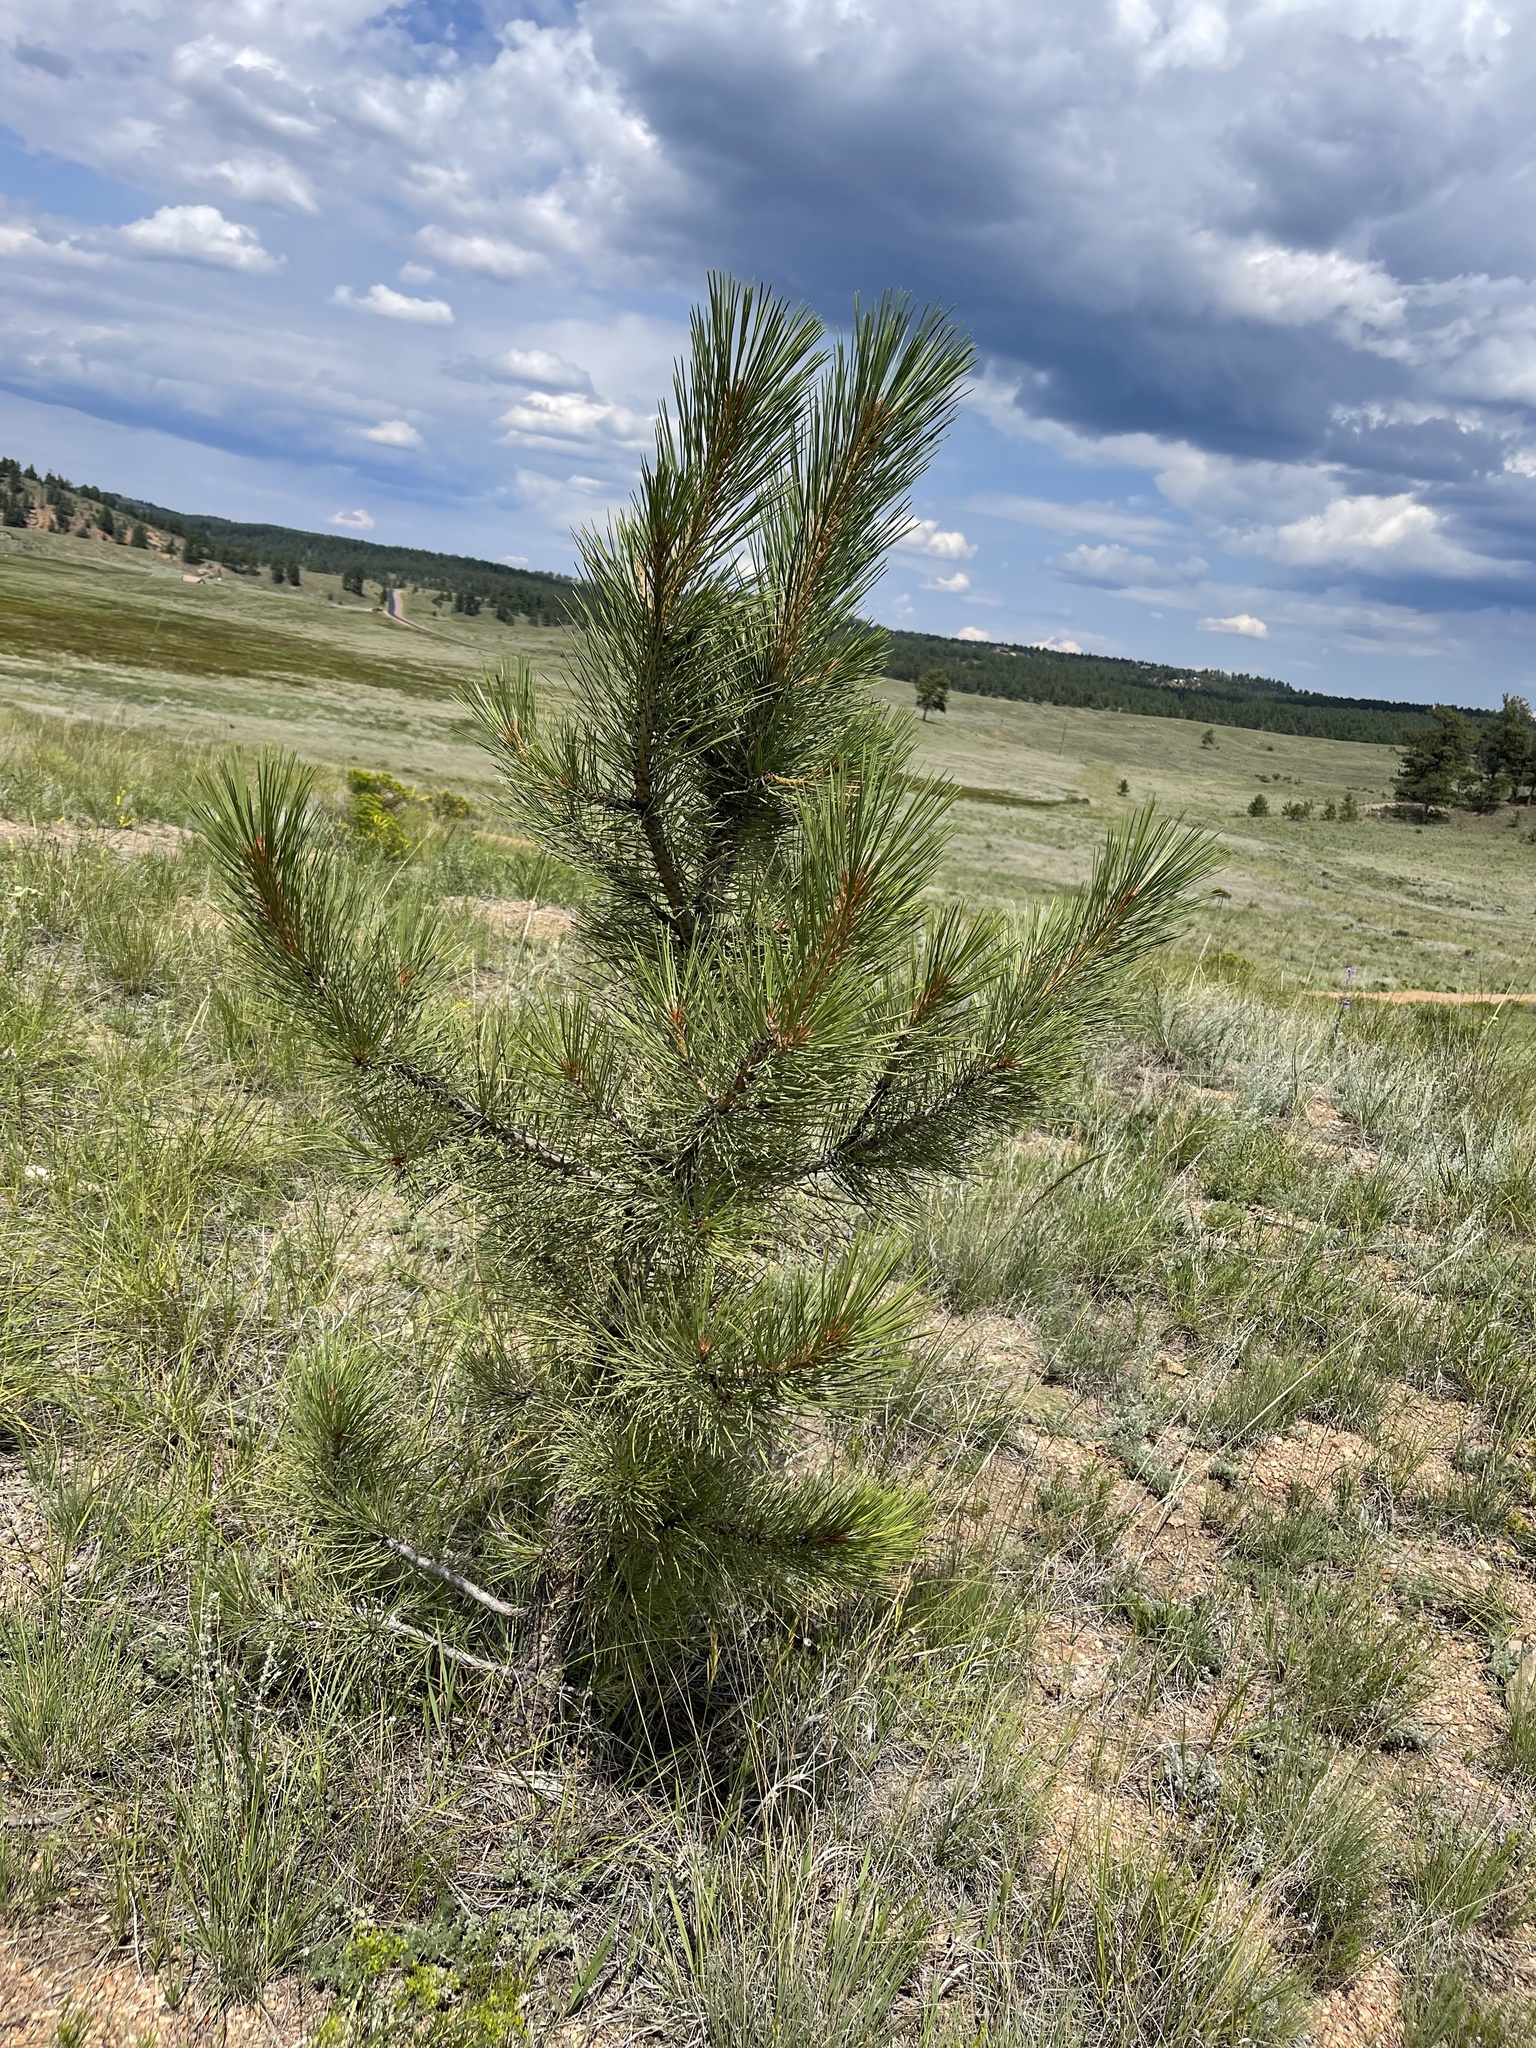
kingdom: Plantae
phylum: Tracheophyta
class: Pinopsida
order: Pinales
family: Pinaceae
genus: Pinus
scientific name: Pinus ponderosa
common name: Western yellow-pine
